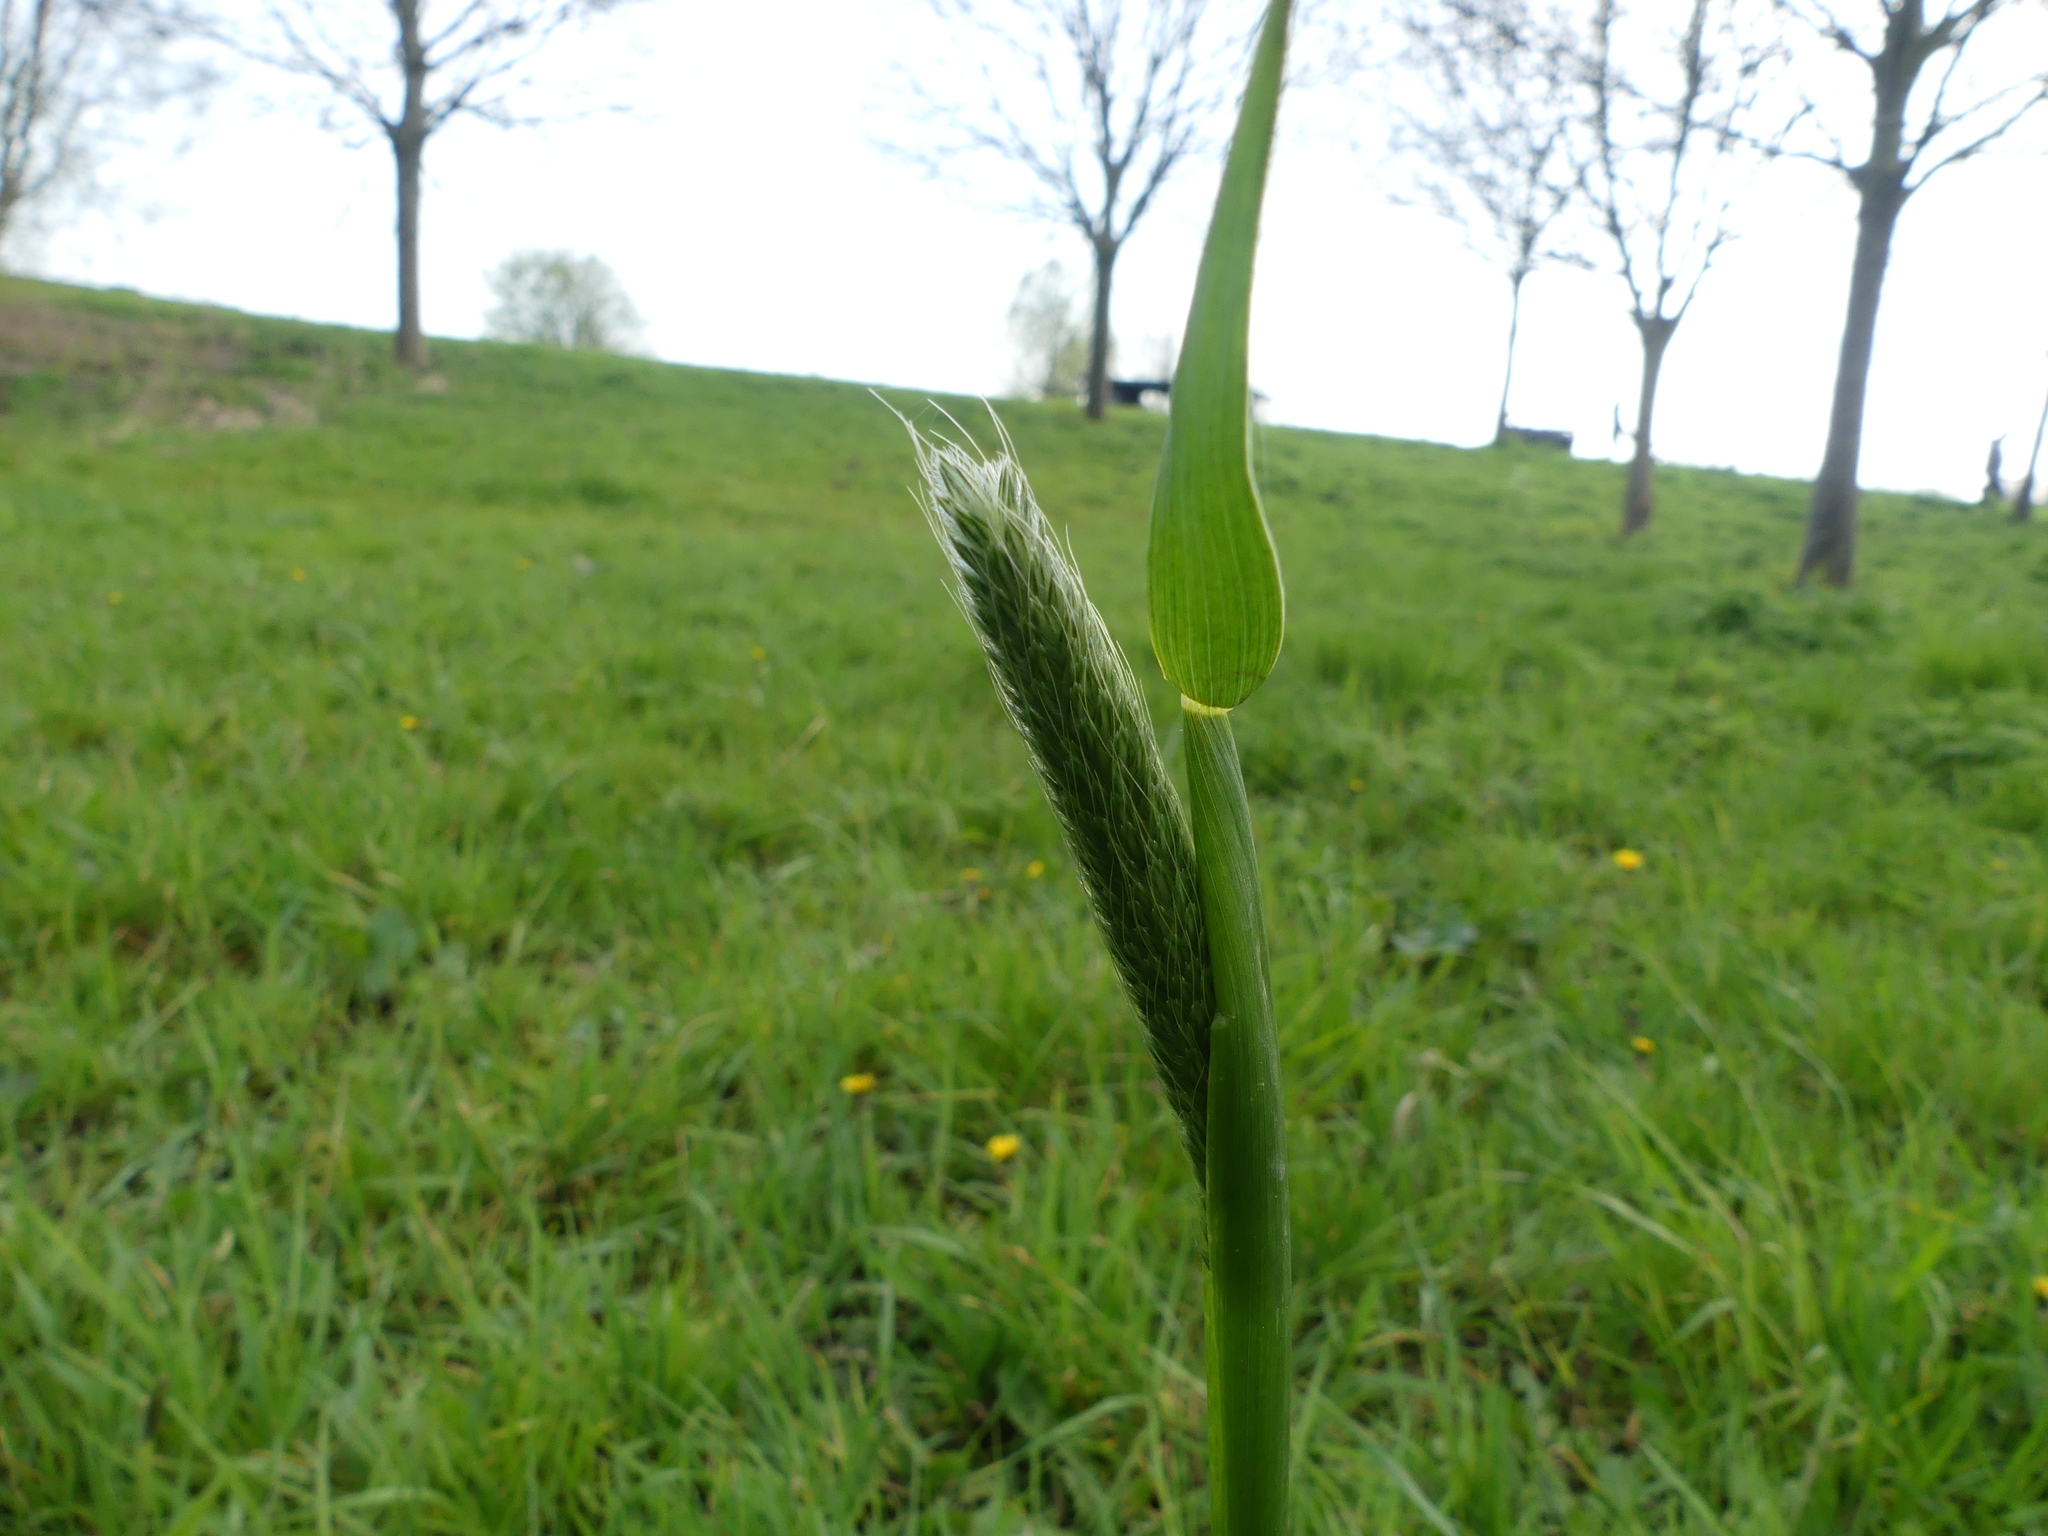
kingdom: Plantae
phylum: Tracheophyta
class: Liliopsida
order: Poales
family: Poaceae
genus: Alopecurus
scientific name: Alopecurus pratensis
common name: Meadow foxtail
